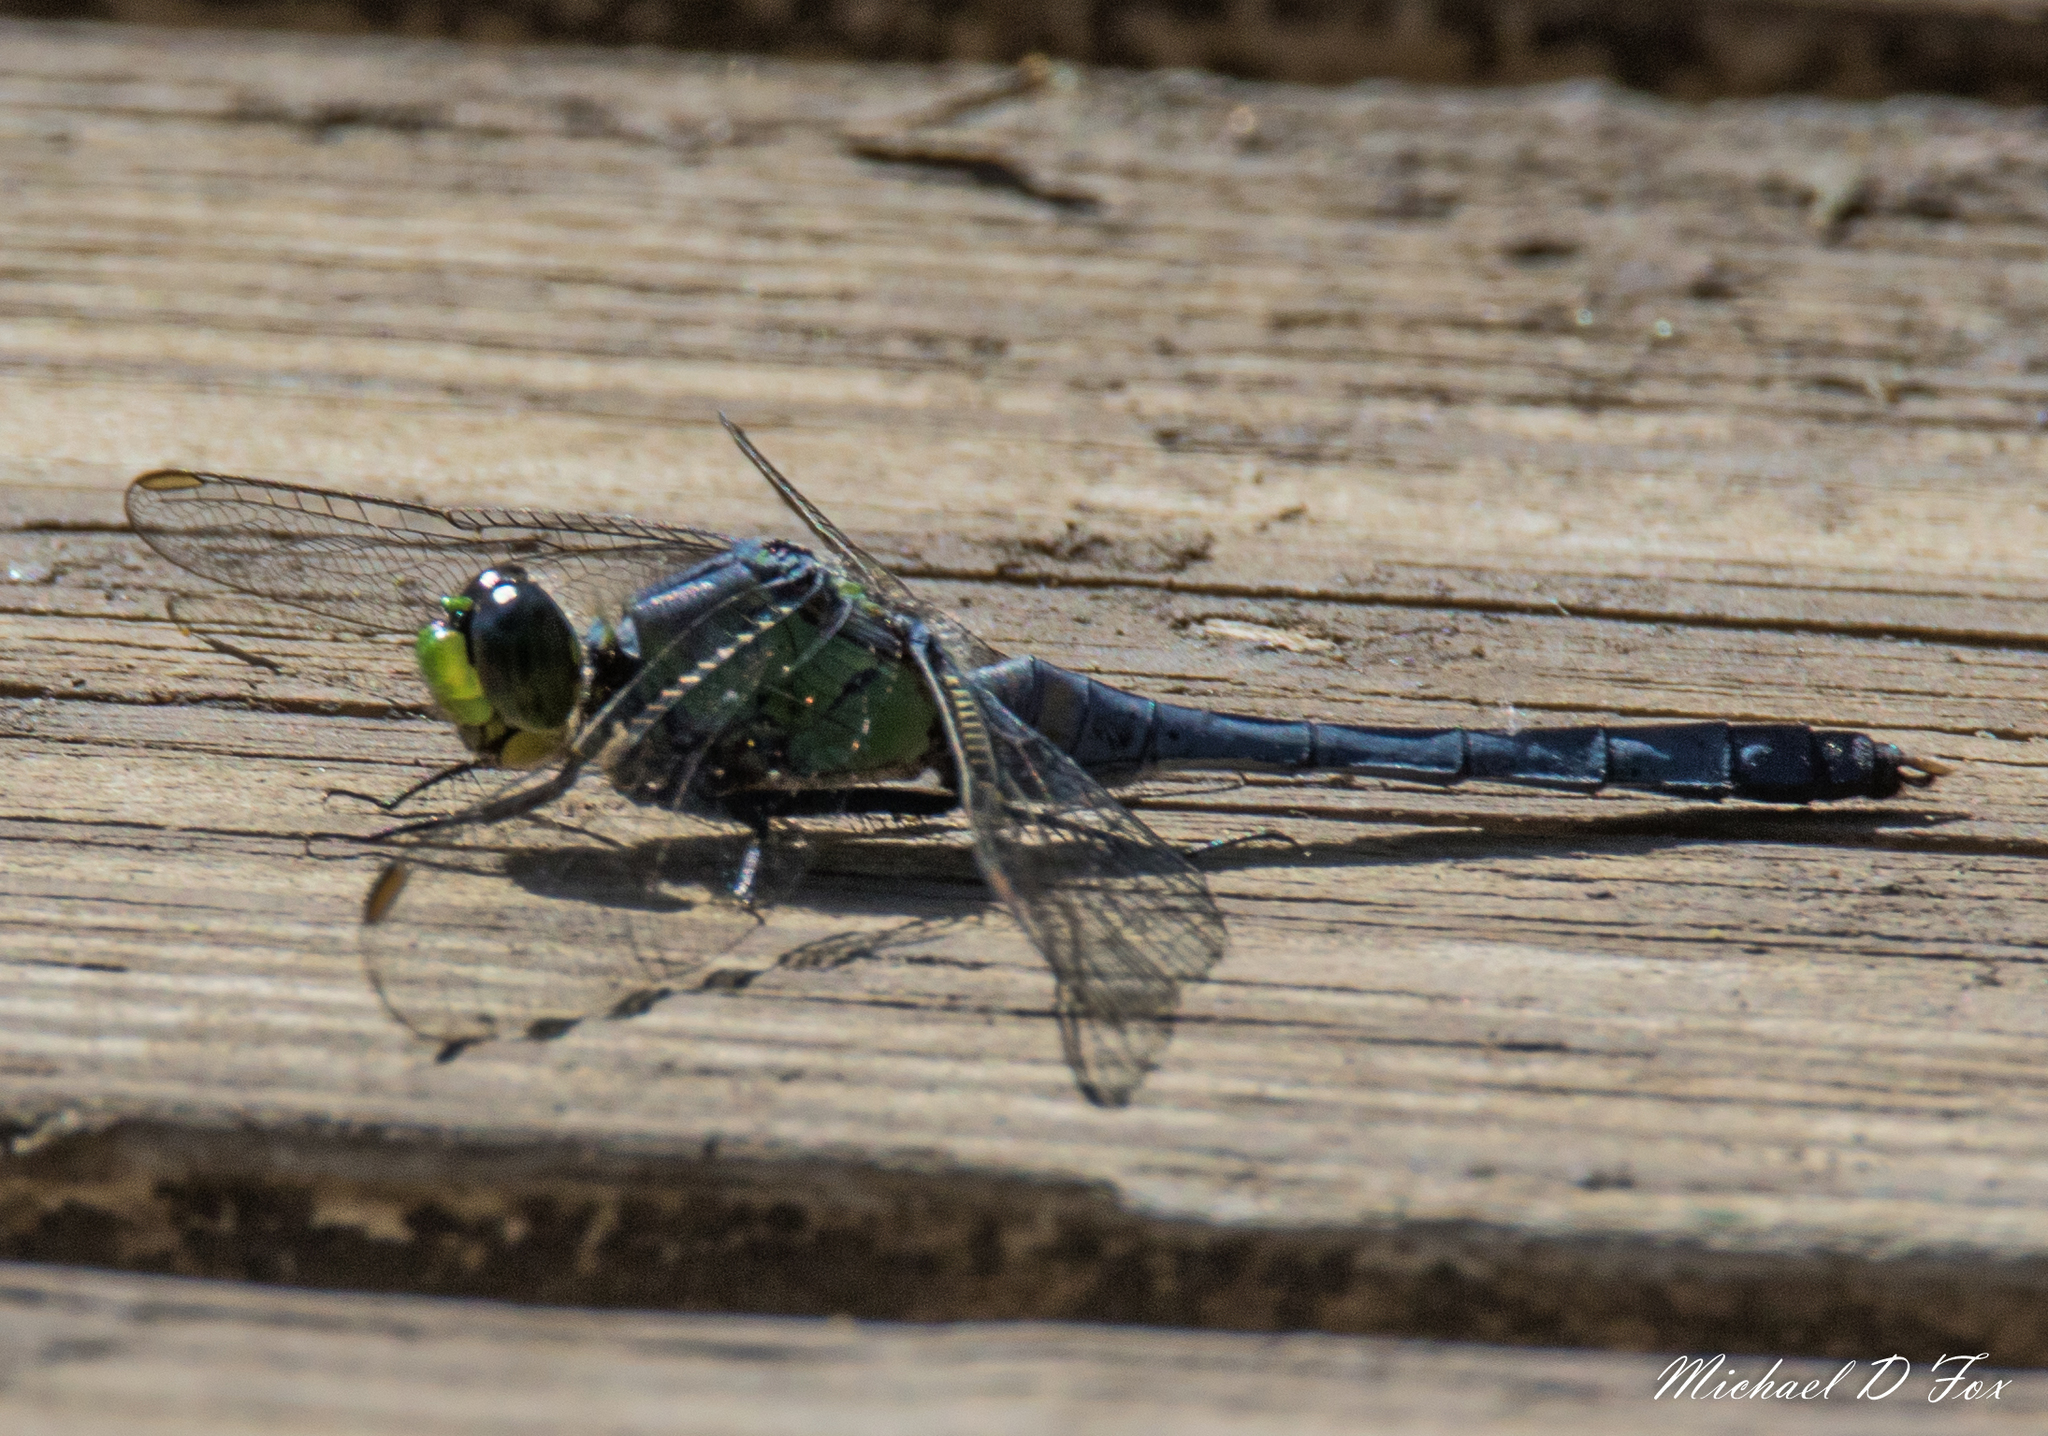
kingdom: Animalia
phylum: Arthropoda
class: Insecta
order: Odonata
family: Libellulidae
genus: Erythemis
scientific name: Erythemis simplicicollis
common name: Eastern pondhawk
